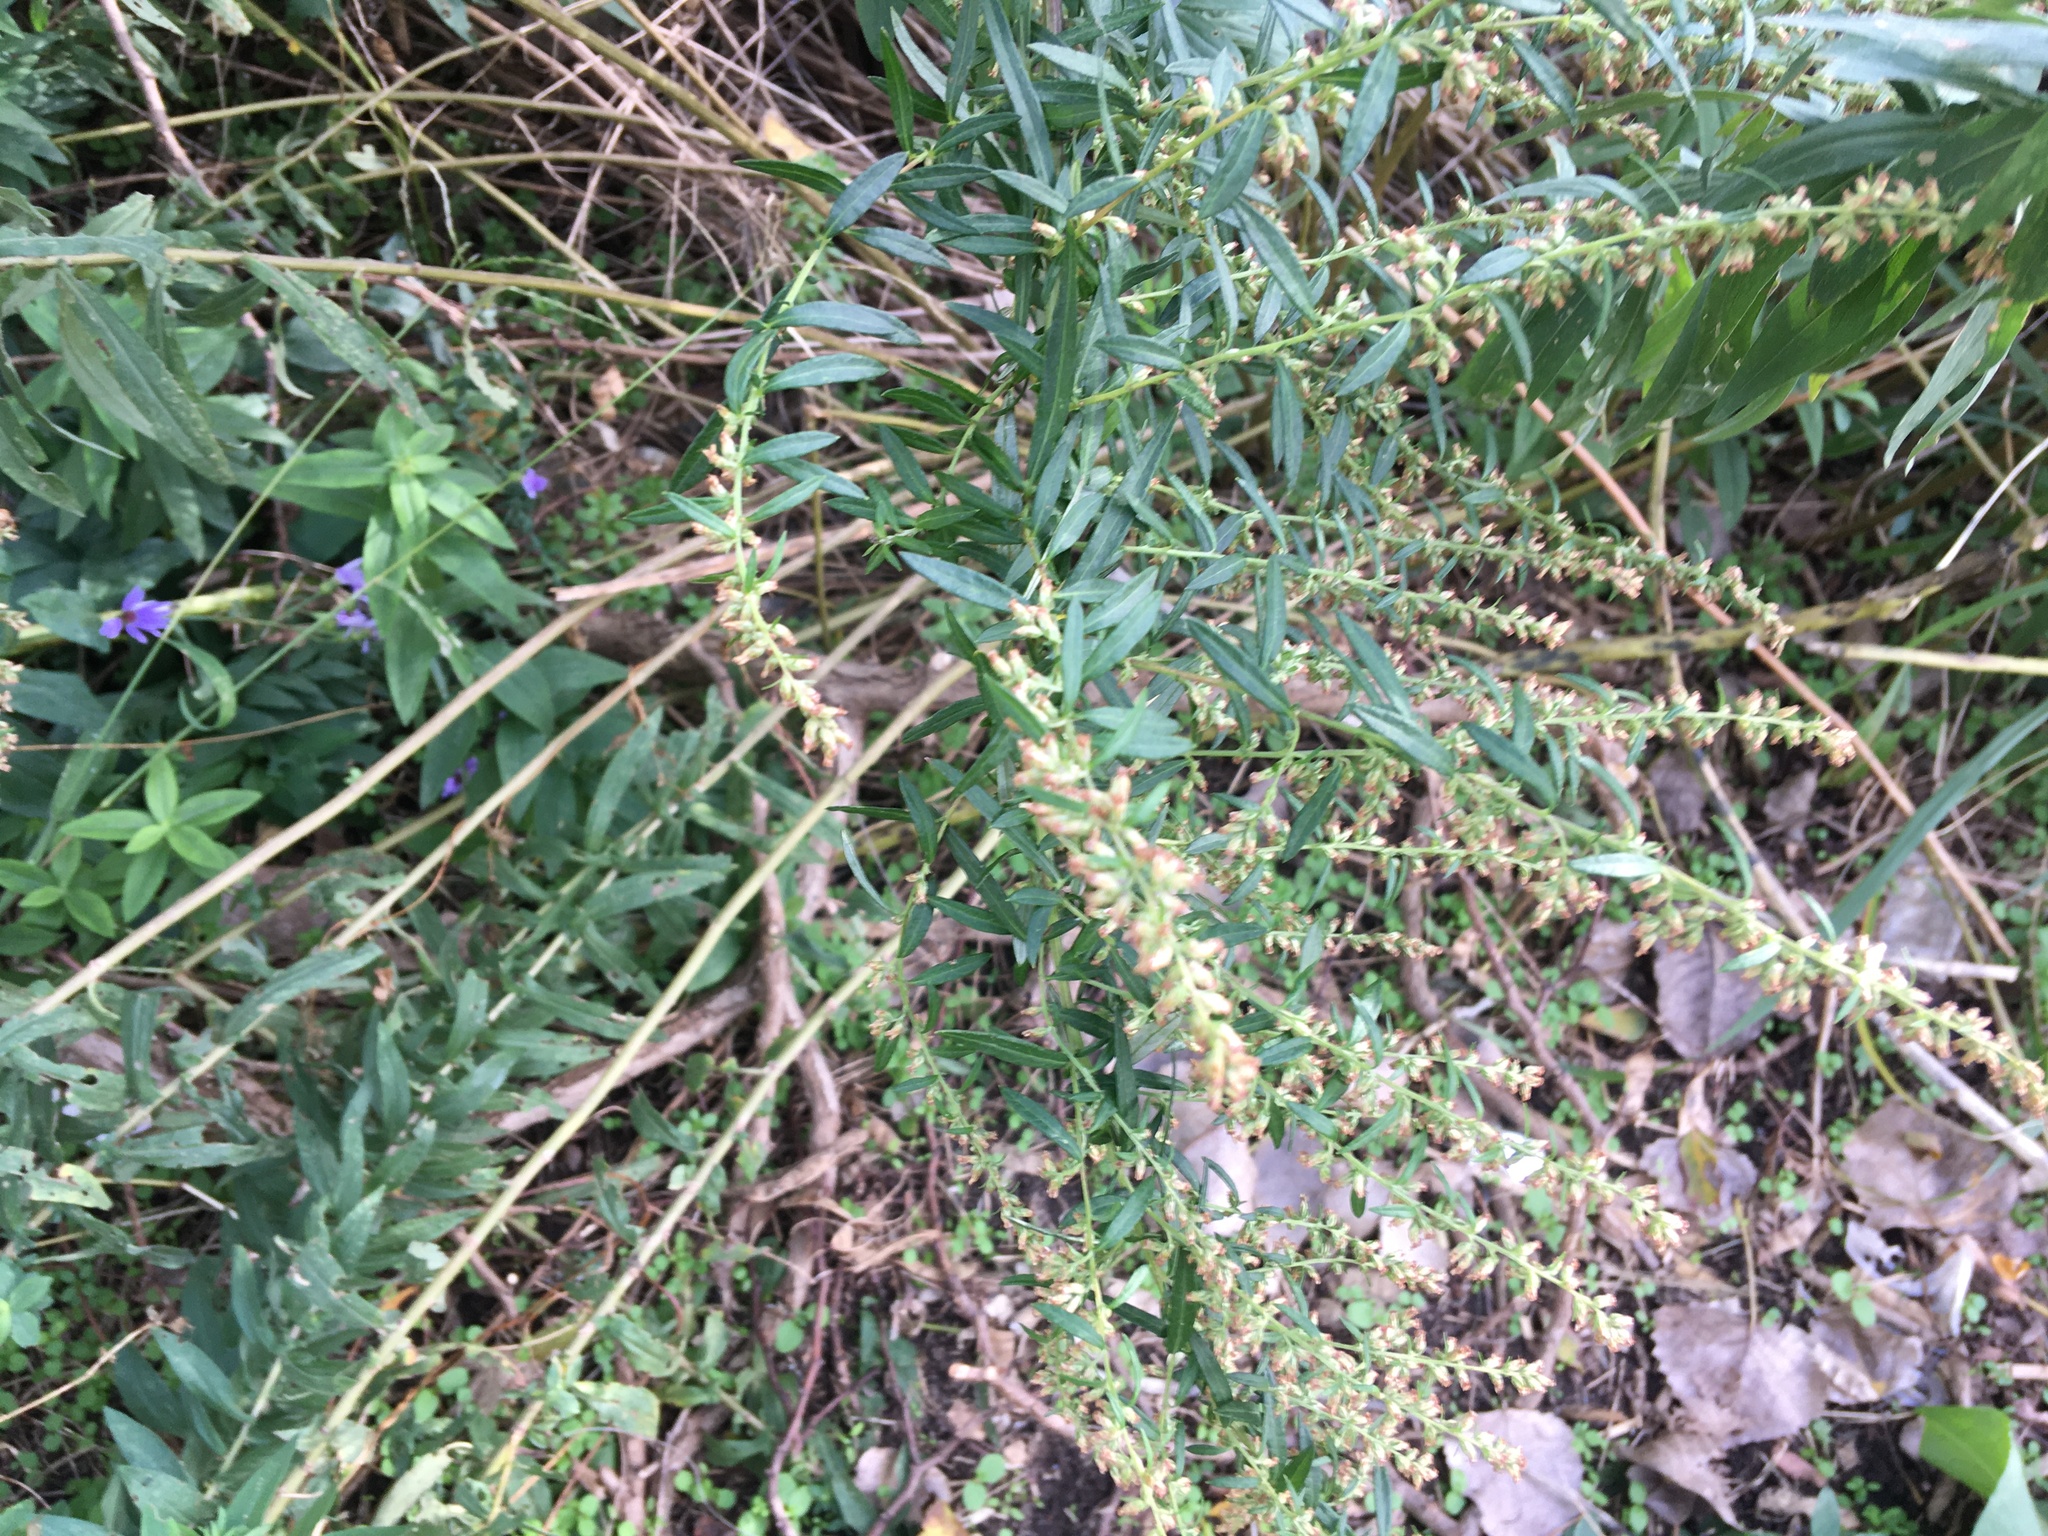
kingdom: Plantae
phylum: Tracheophyta
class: Magnoliopsida
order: Asterales
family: Asteraceae
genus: Artemisia
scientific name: Artemisia vulgaris
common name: Mugwort
